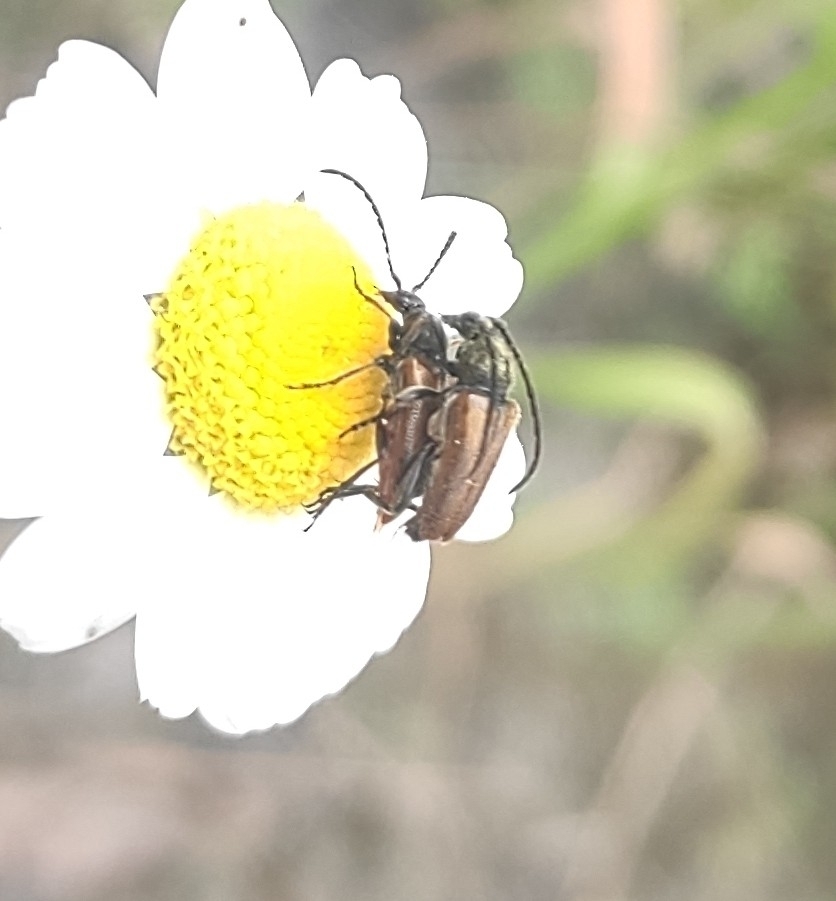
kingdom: Animalia
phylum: Arthropoda
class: Insecta
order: Coleoptera
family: Cerambycidae
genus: Pseudovadonia
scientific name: Pseudovadonia livida
